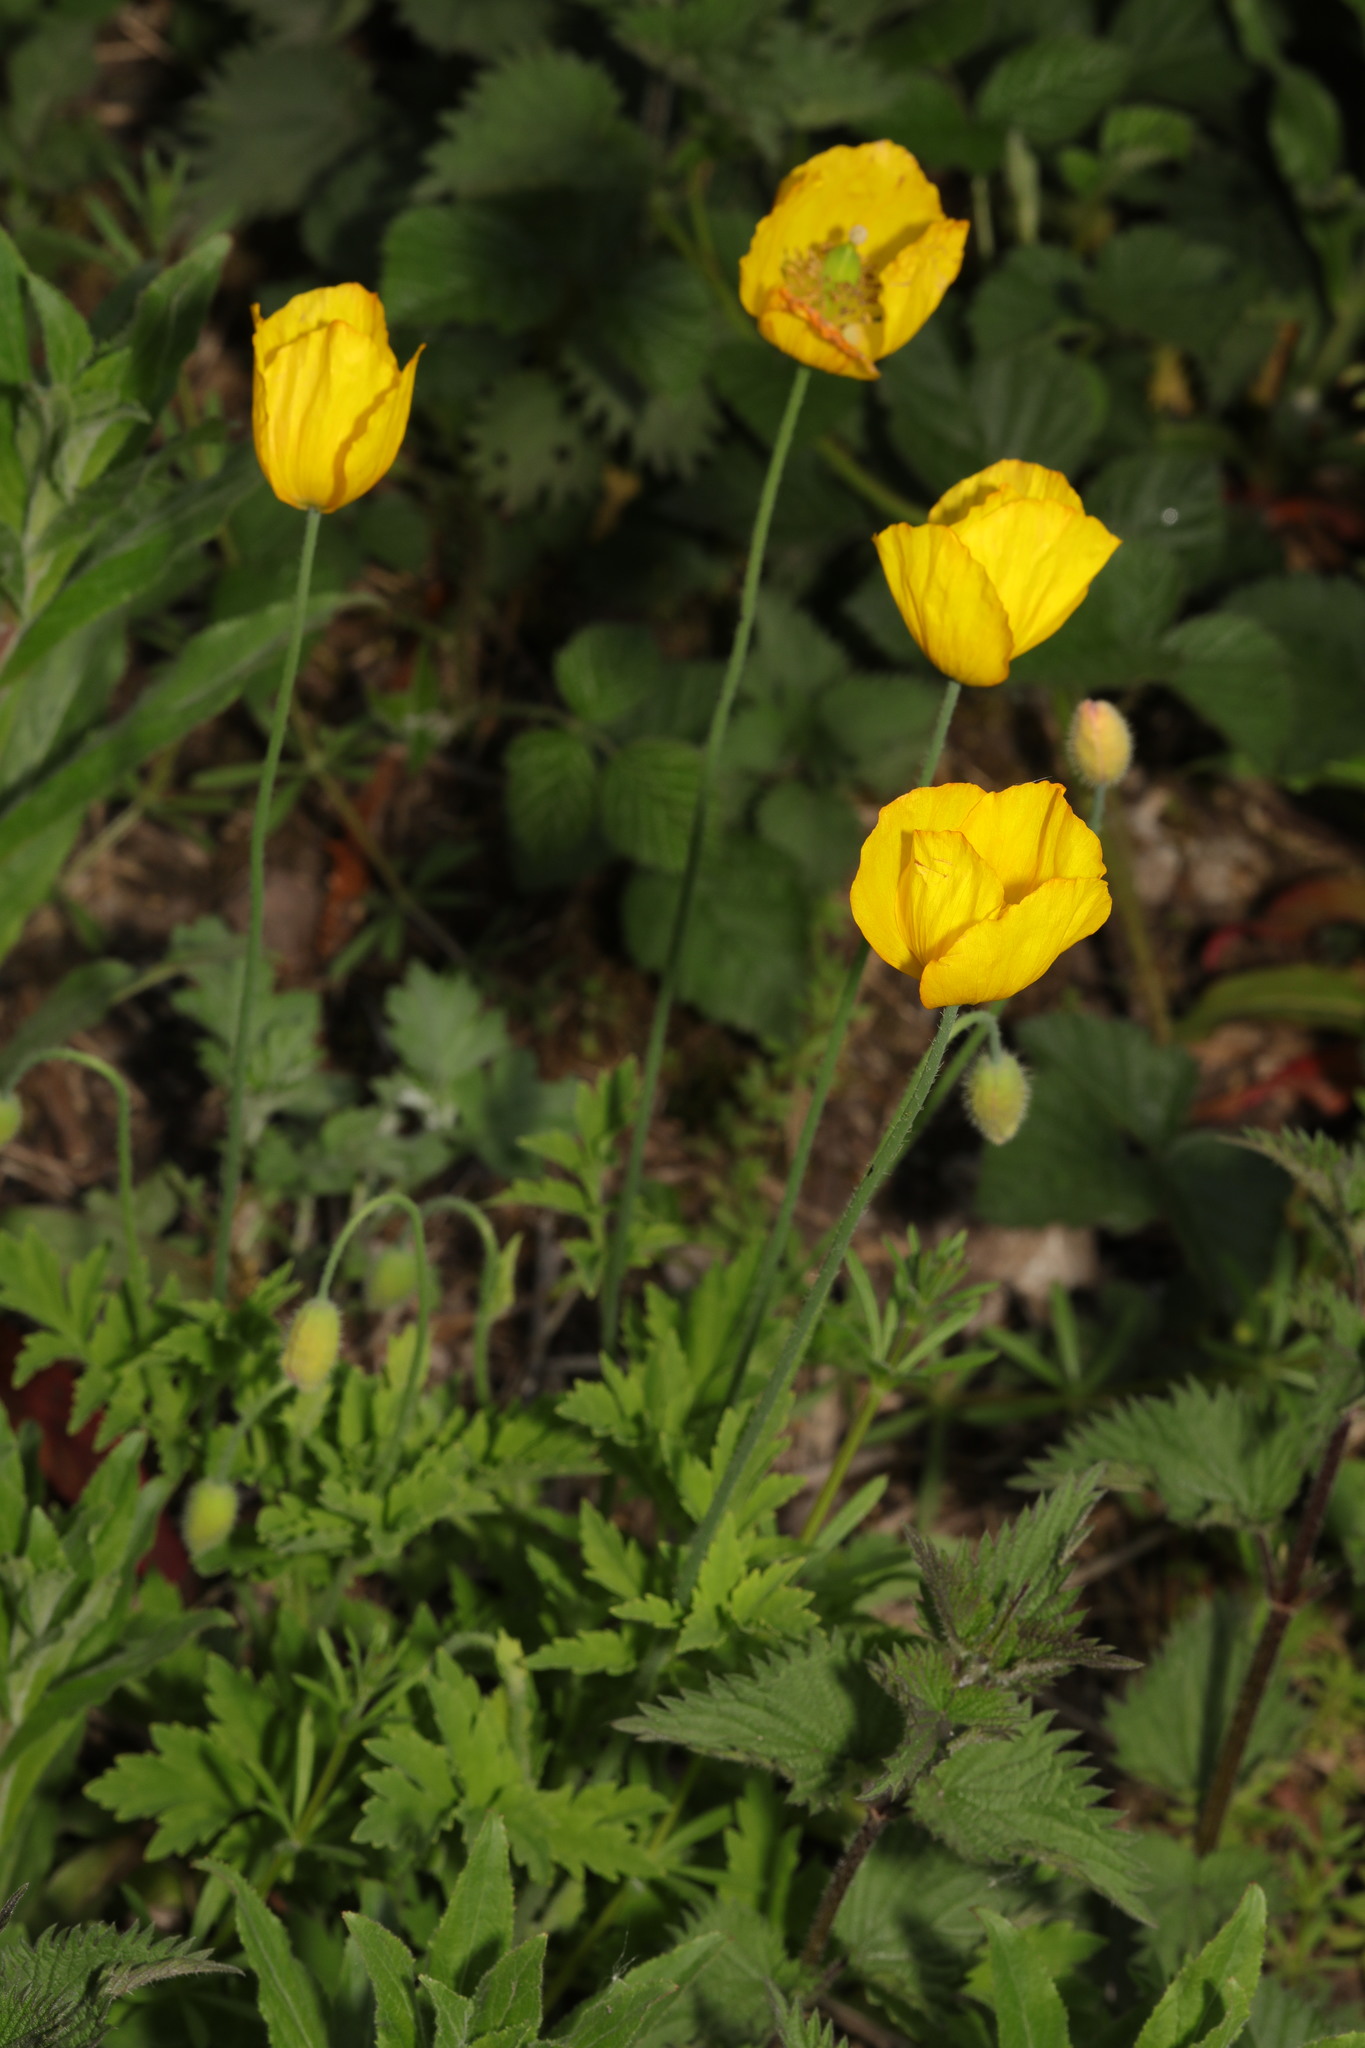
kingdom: Plantae
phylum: Tracheophyta
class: Magnoliopsida
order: Ranunculales
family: Papaveraceae
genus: Papaver
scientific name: Papaver cambricum
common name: Poppy
